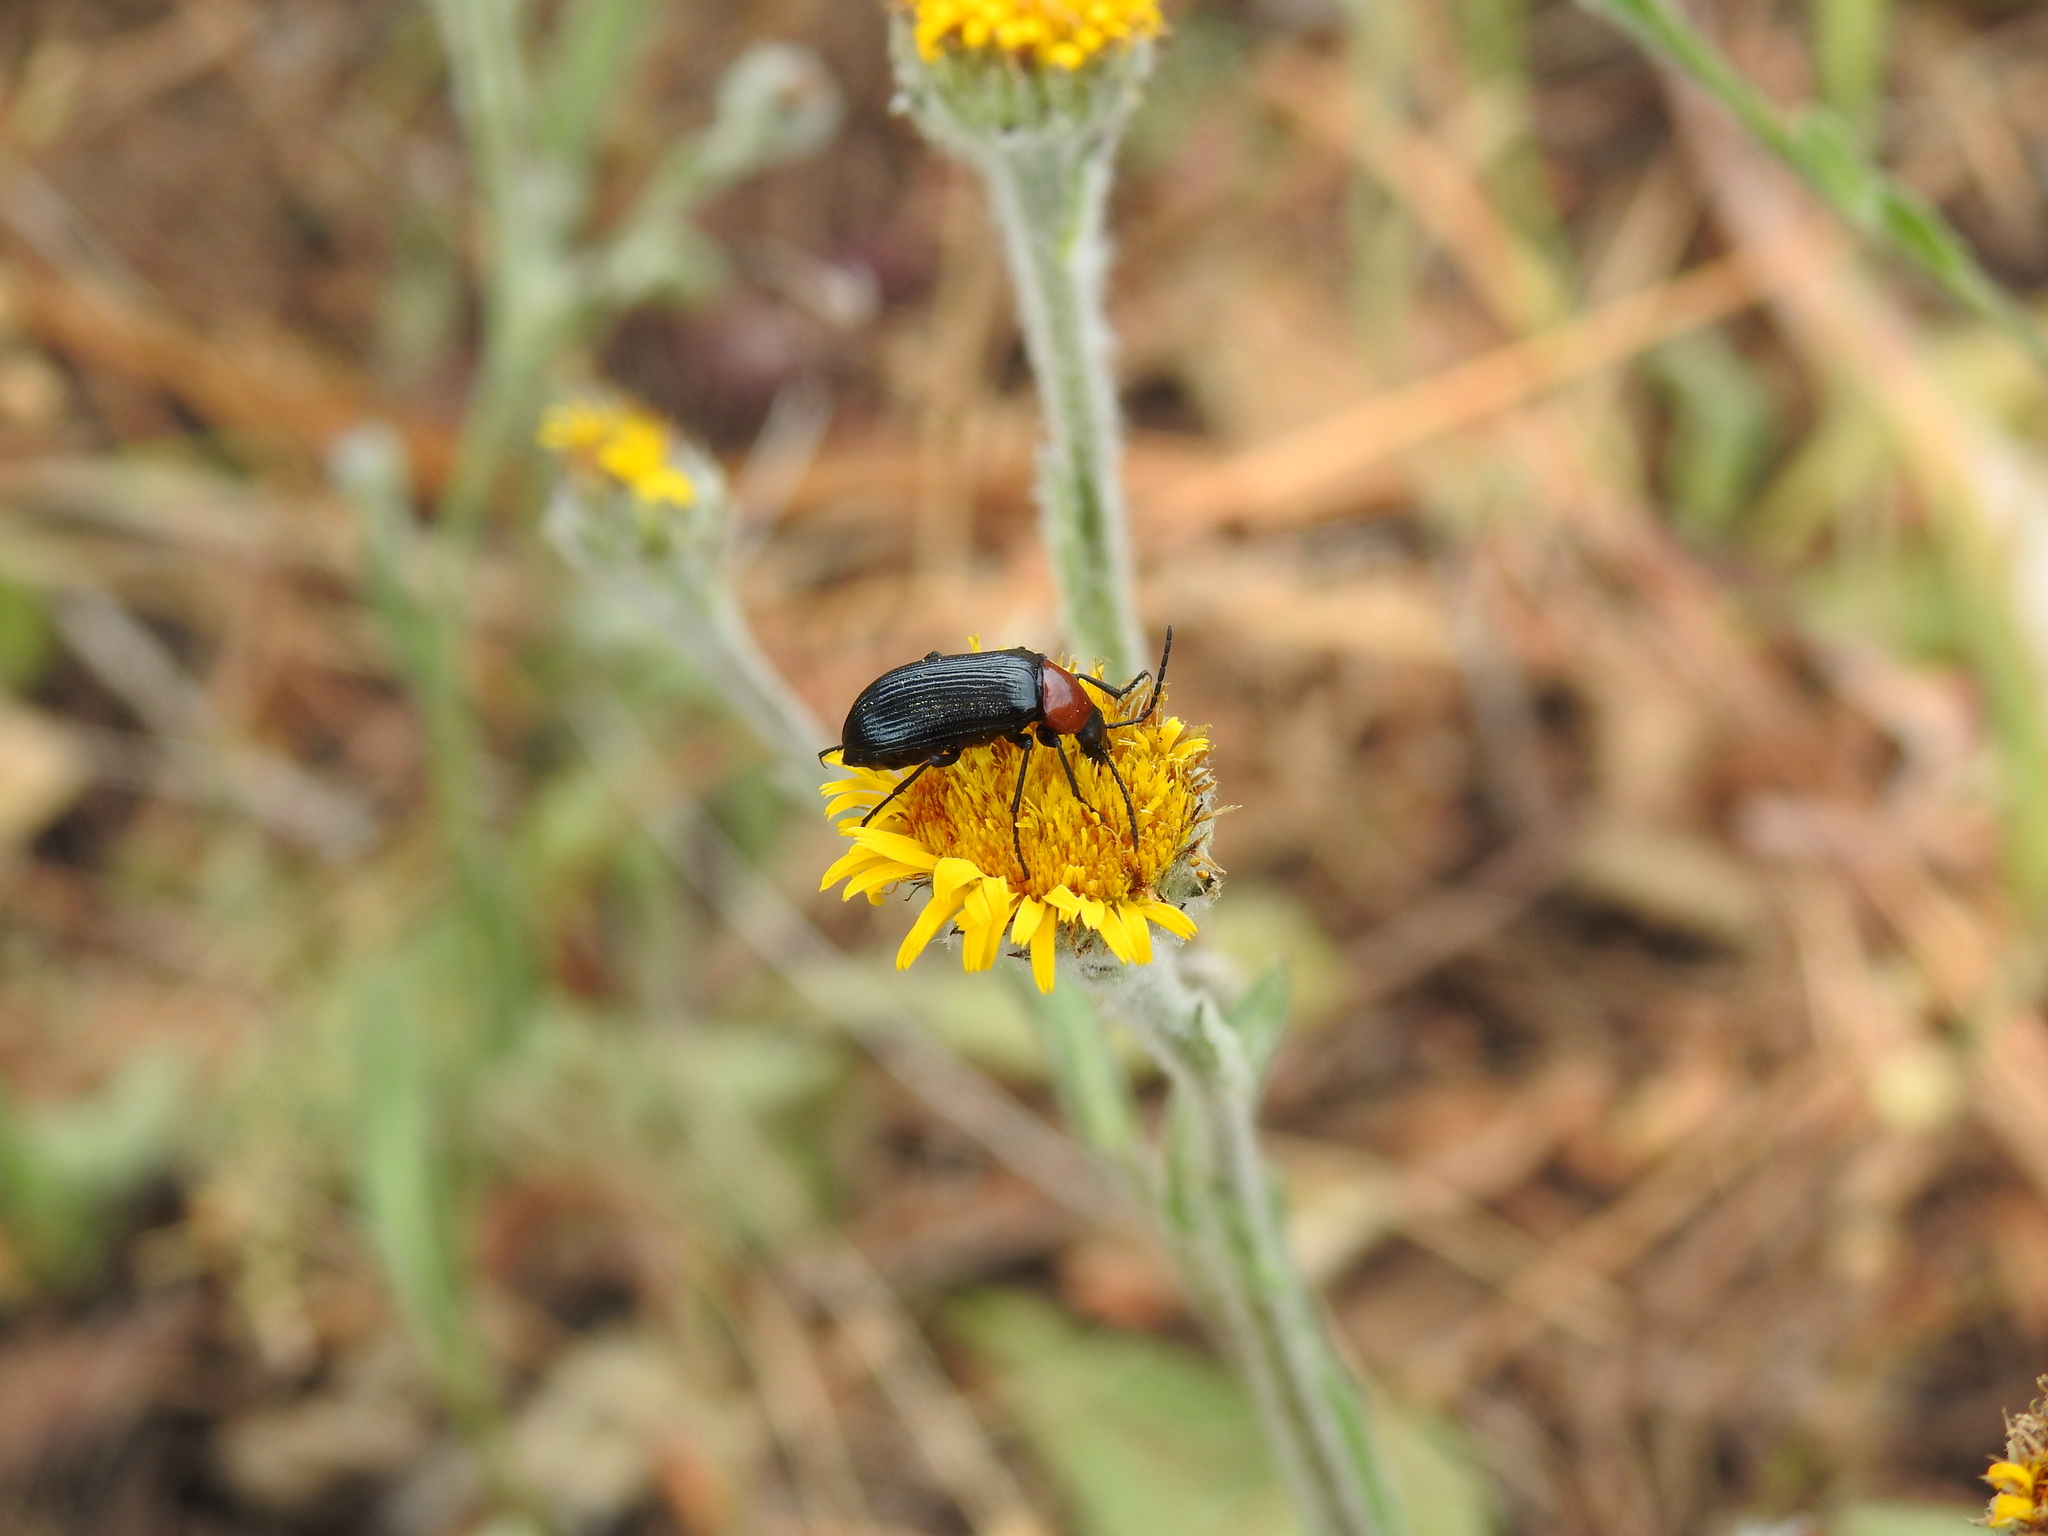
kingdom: Animalia
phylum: Arthropoda
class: Insecta
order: Coleoptera
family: Tenebrionidae
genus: Heliotaurus
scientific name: Heliotaurus ruficollis
